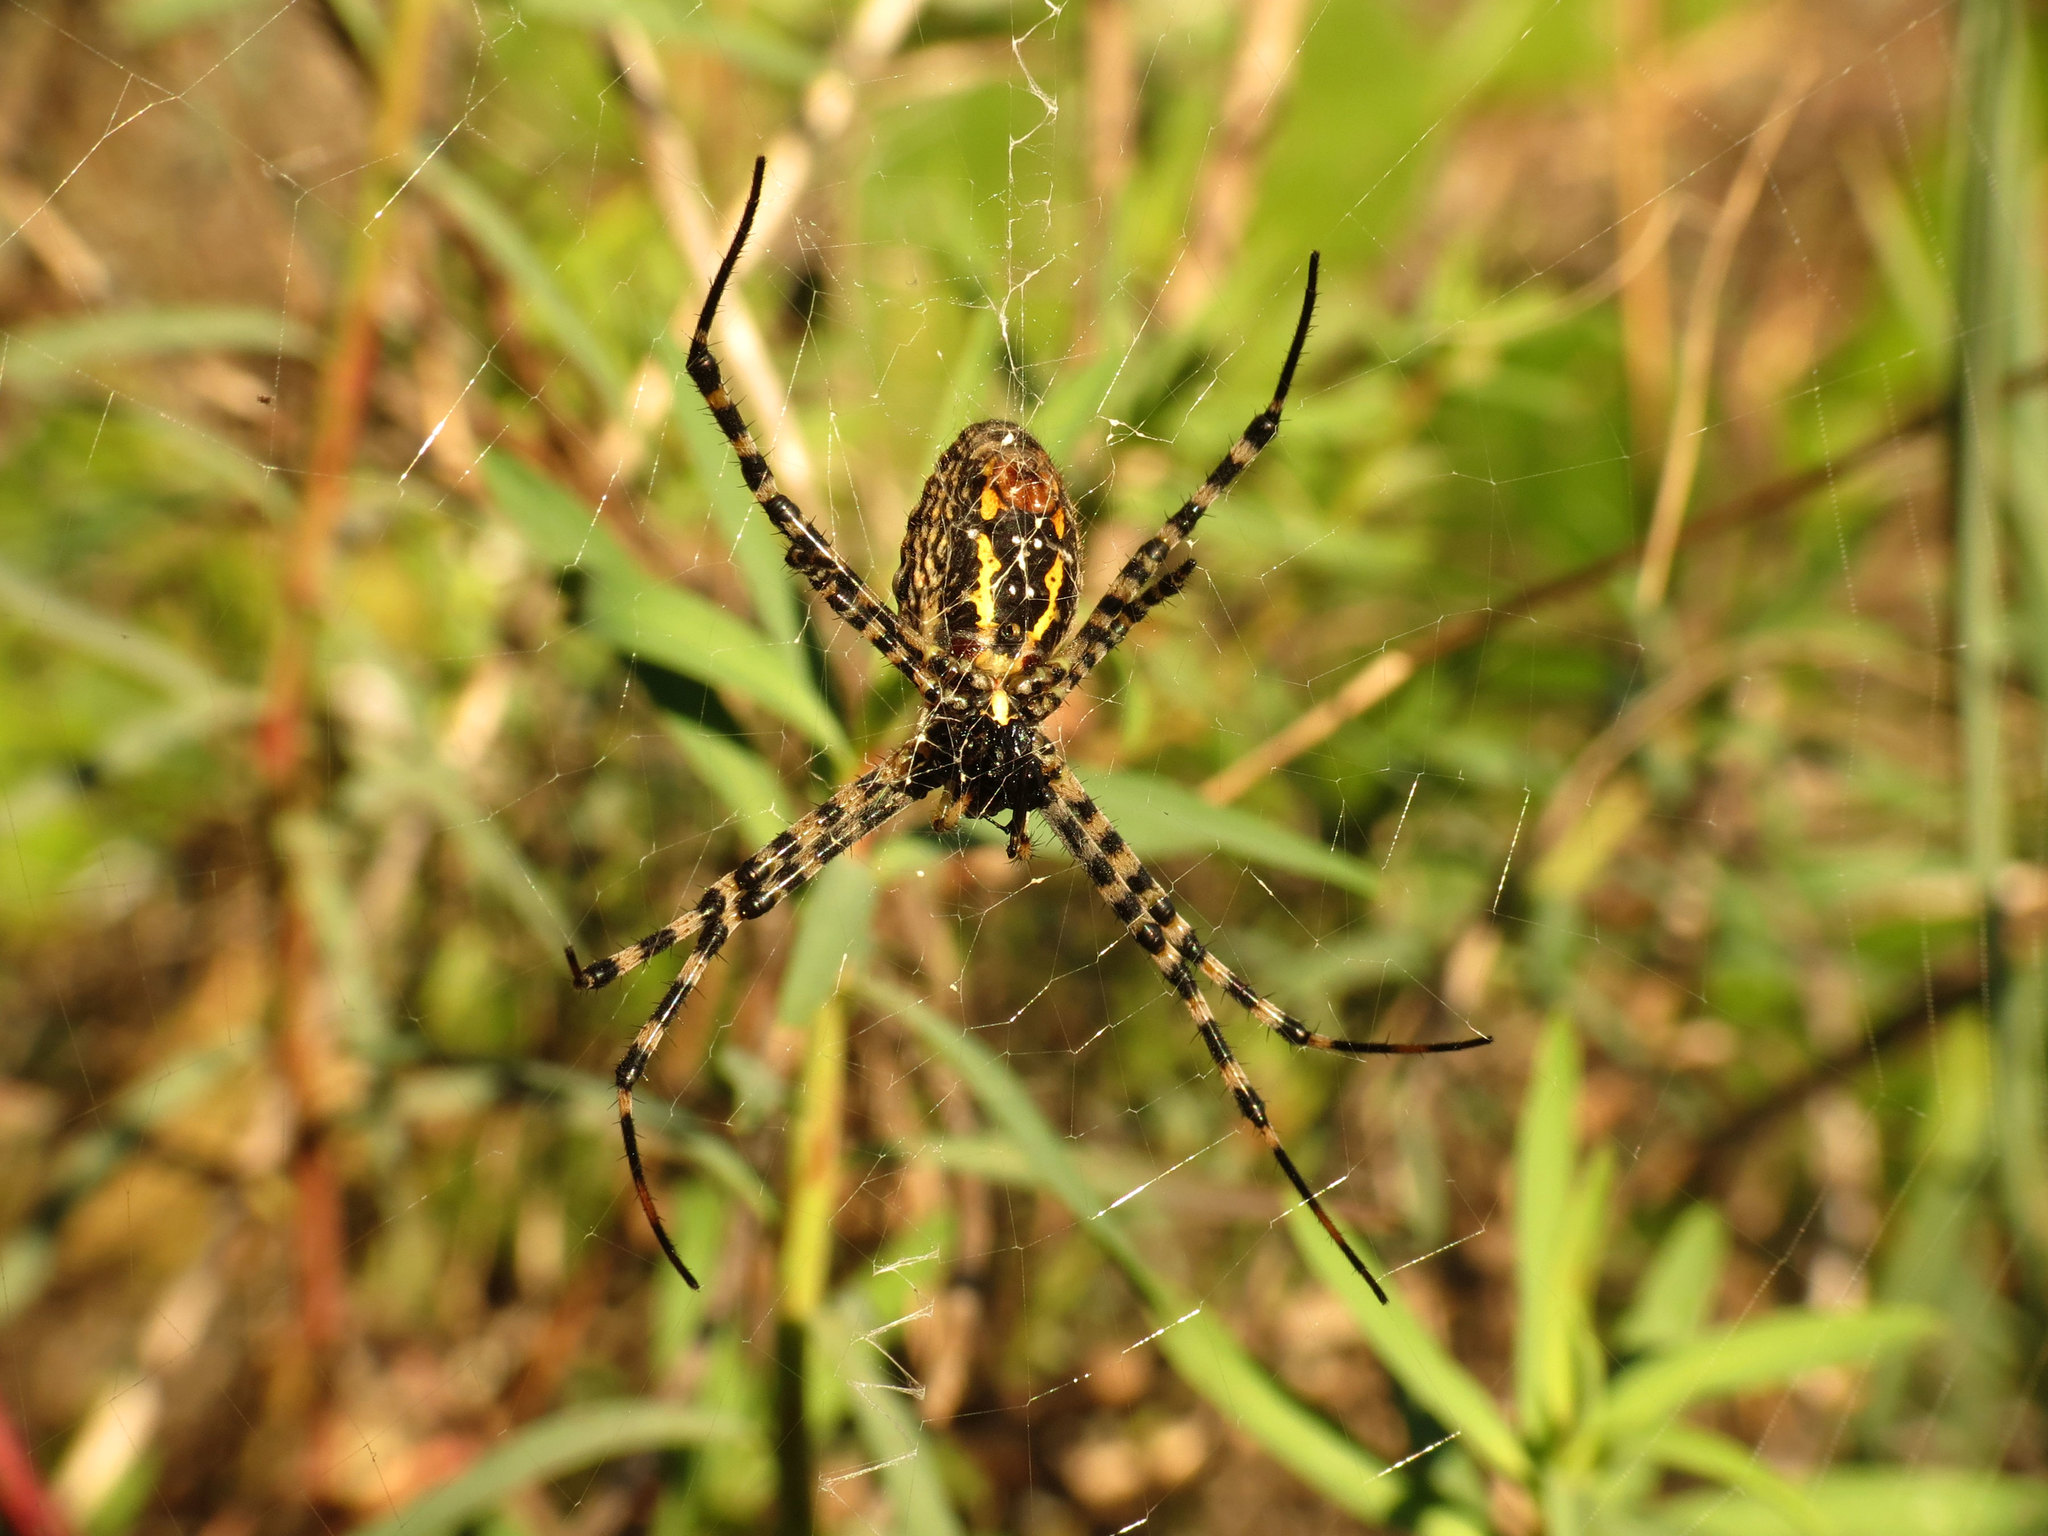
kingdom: Animalia
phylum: Arthropoda
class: Arachnida
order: Araneae
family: Araneidae
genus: Argiope
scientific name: Argiope trifasciata
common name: Banded garden spider
